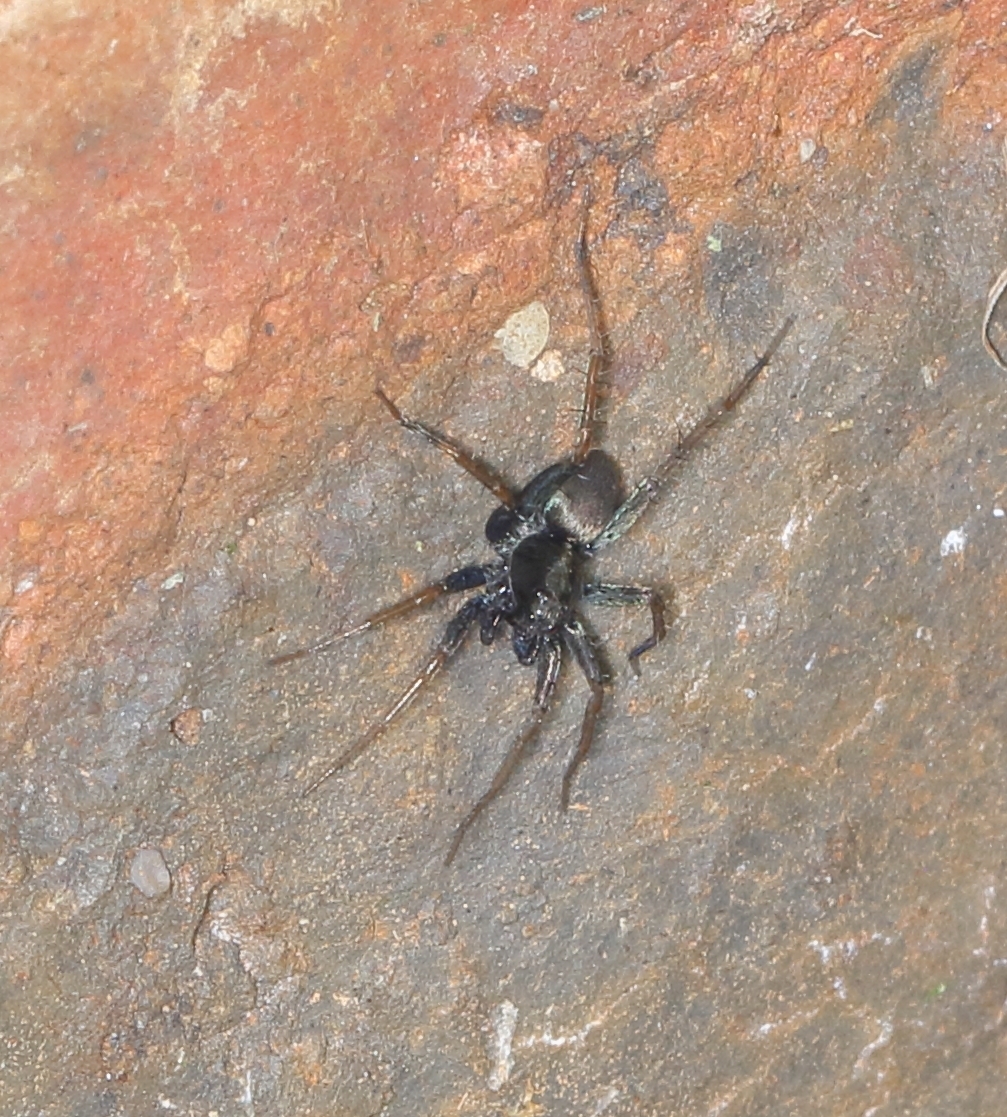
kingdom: Animalia
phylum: Arthropoda
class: Arachnida
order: Araneae
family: Lycosidae
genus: Foveosa
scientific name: Foveosa foveolata
